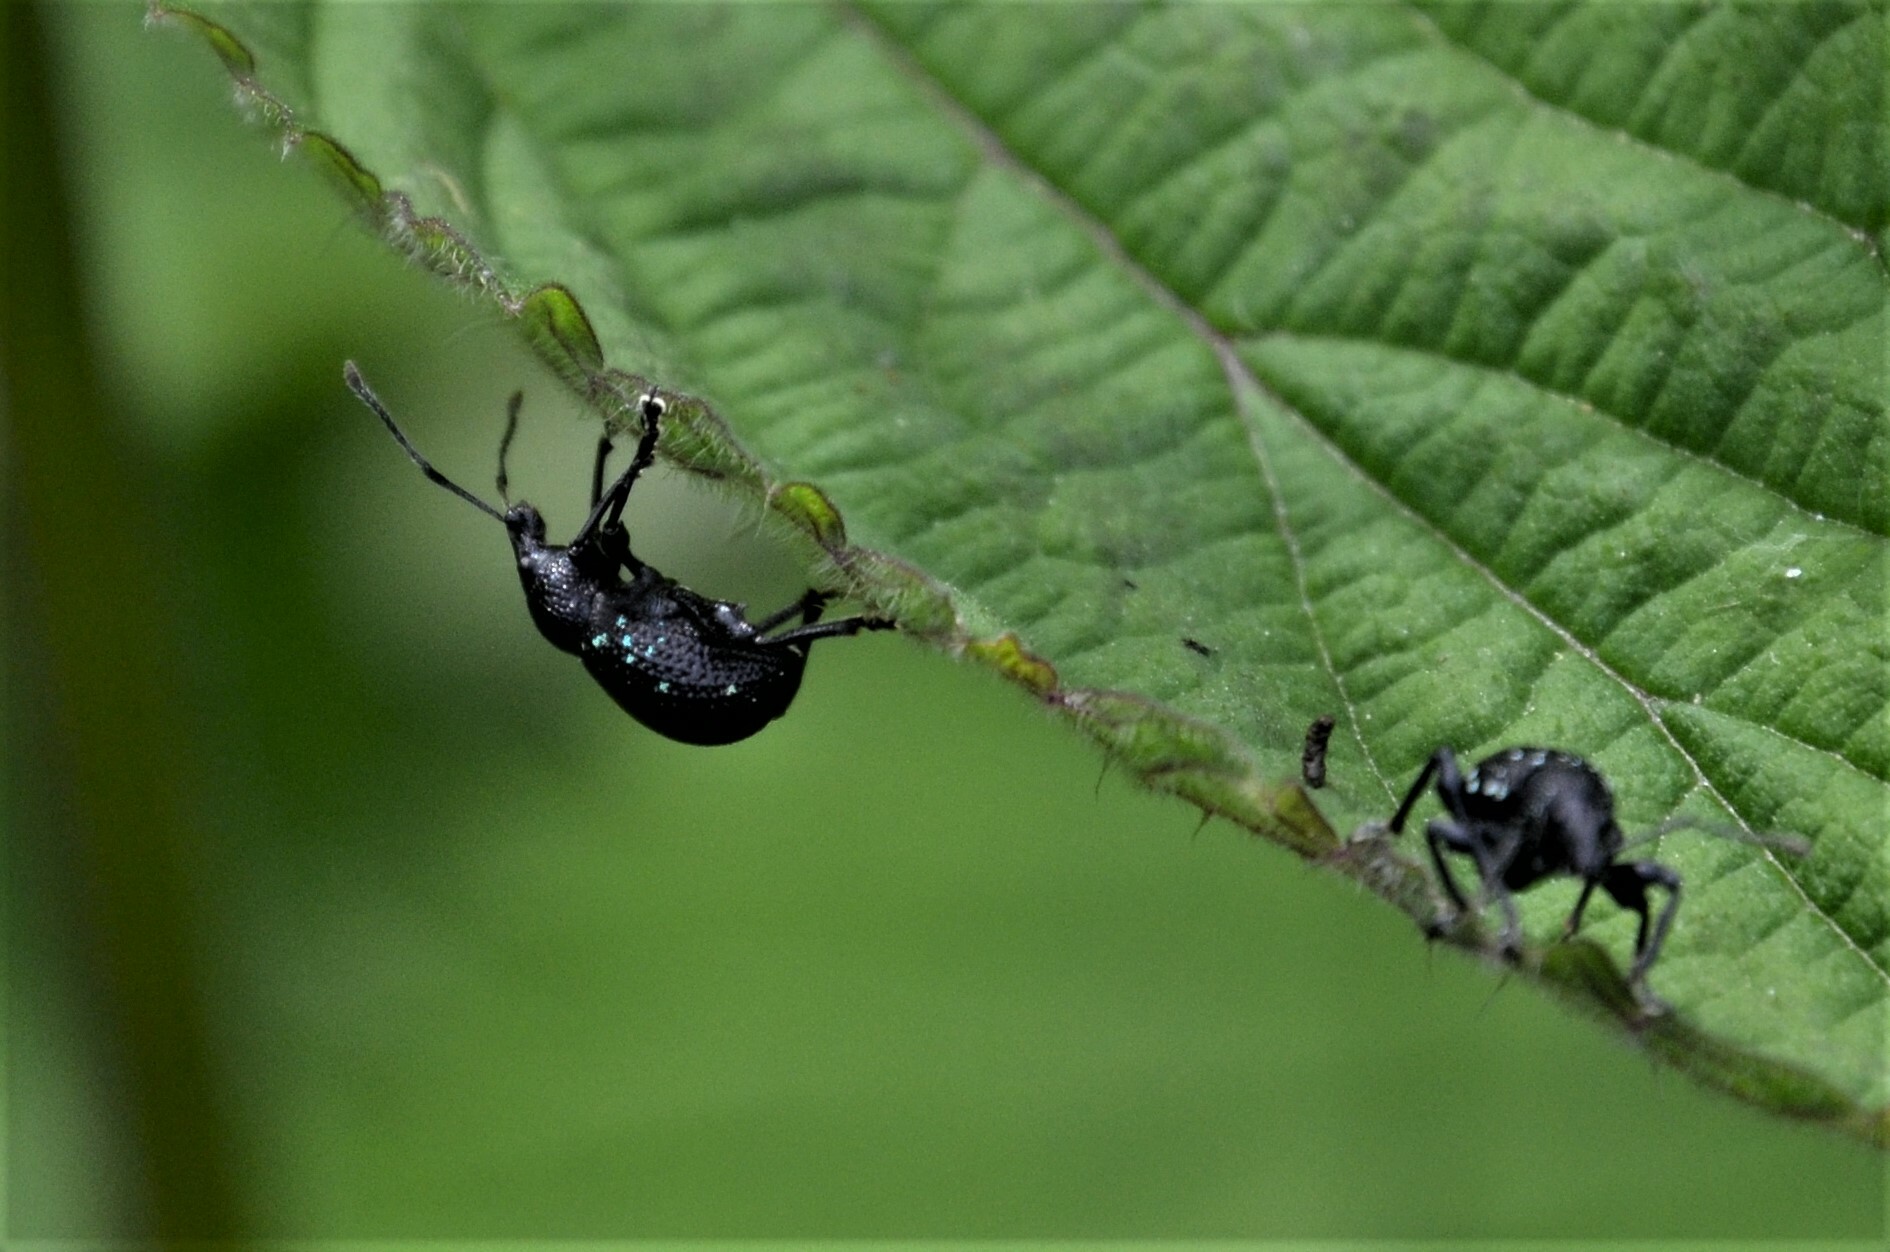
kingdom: Animalia
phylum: Arthropoda
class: Insecta
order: Coleoptera
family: Curculionidae
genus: Otiorhynchus
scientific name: Otiorhynchus gemmatus
